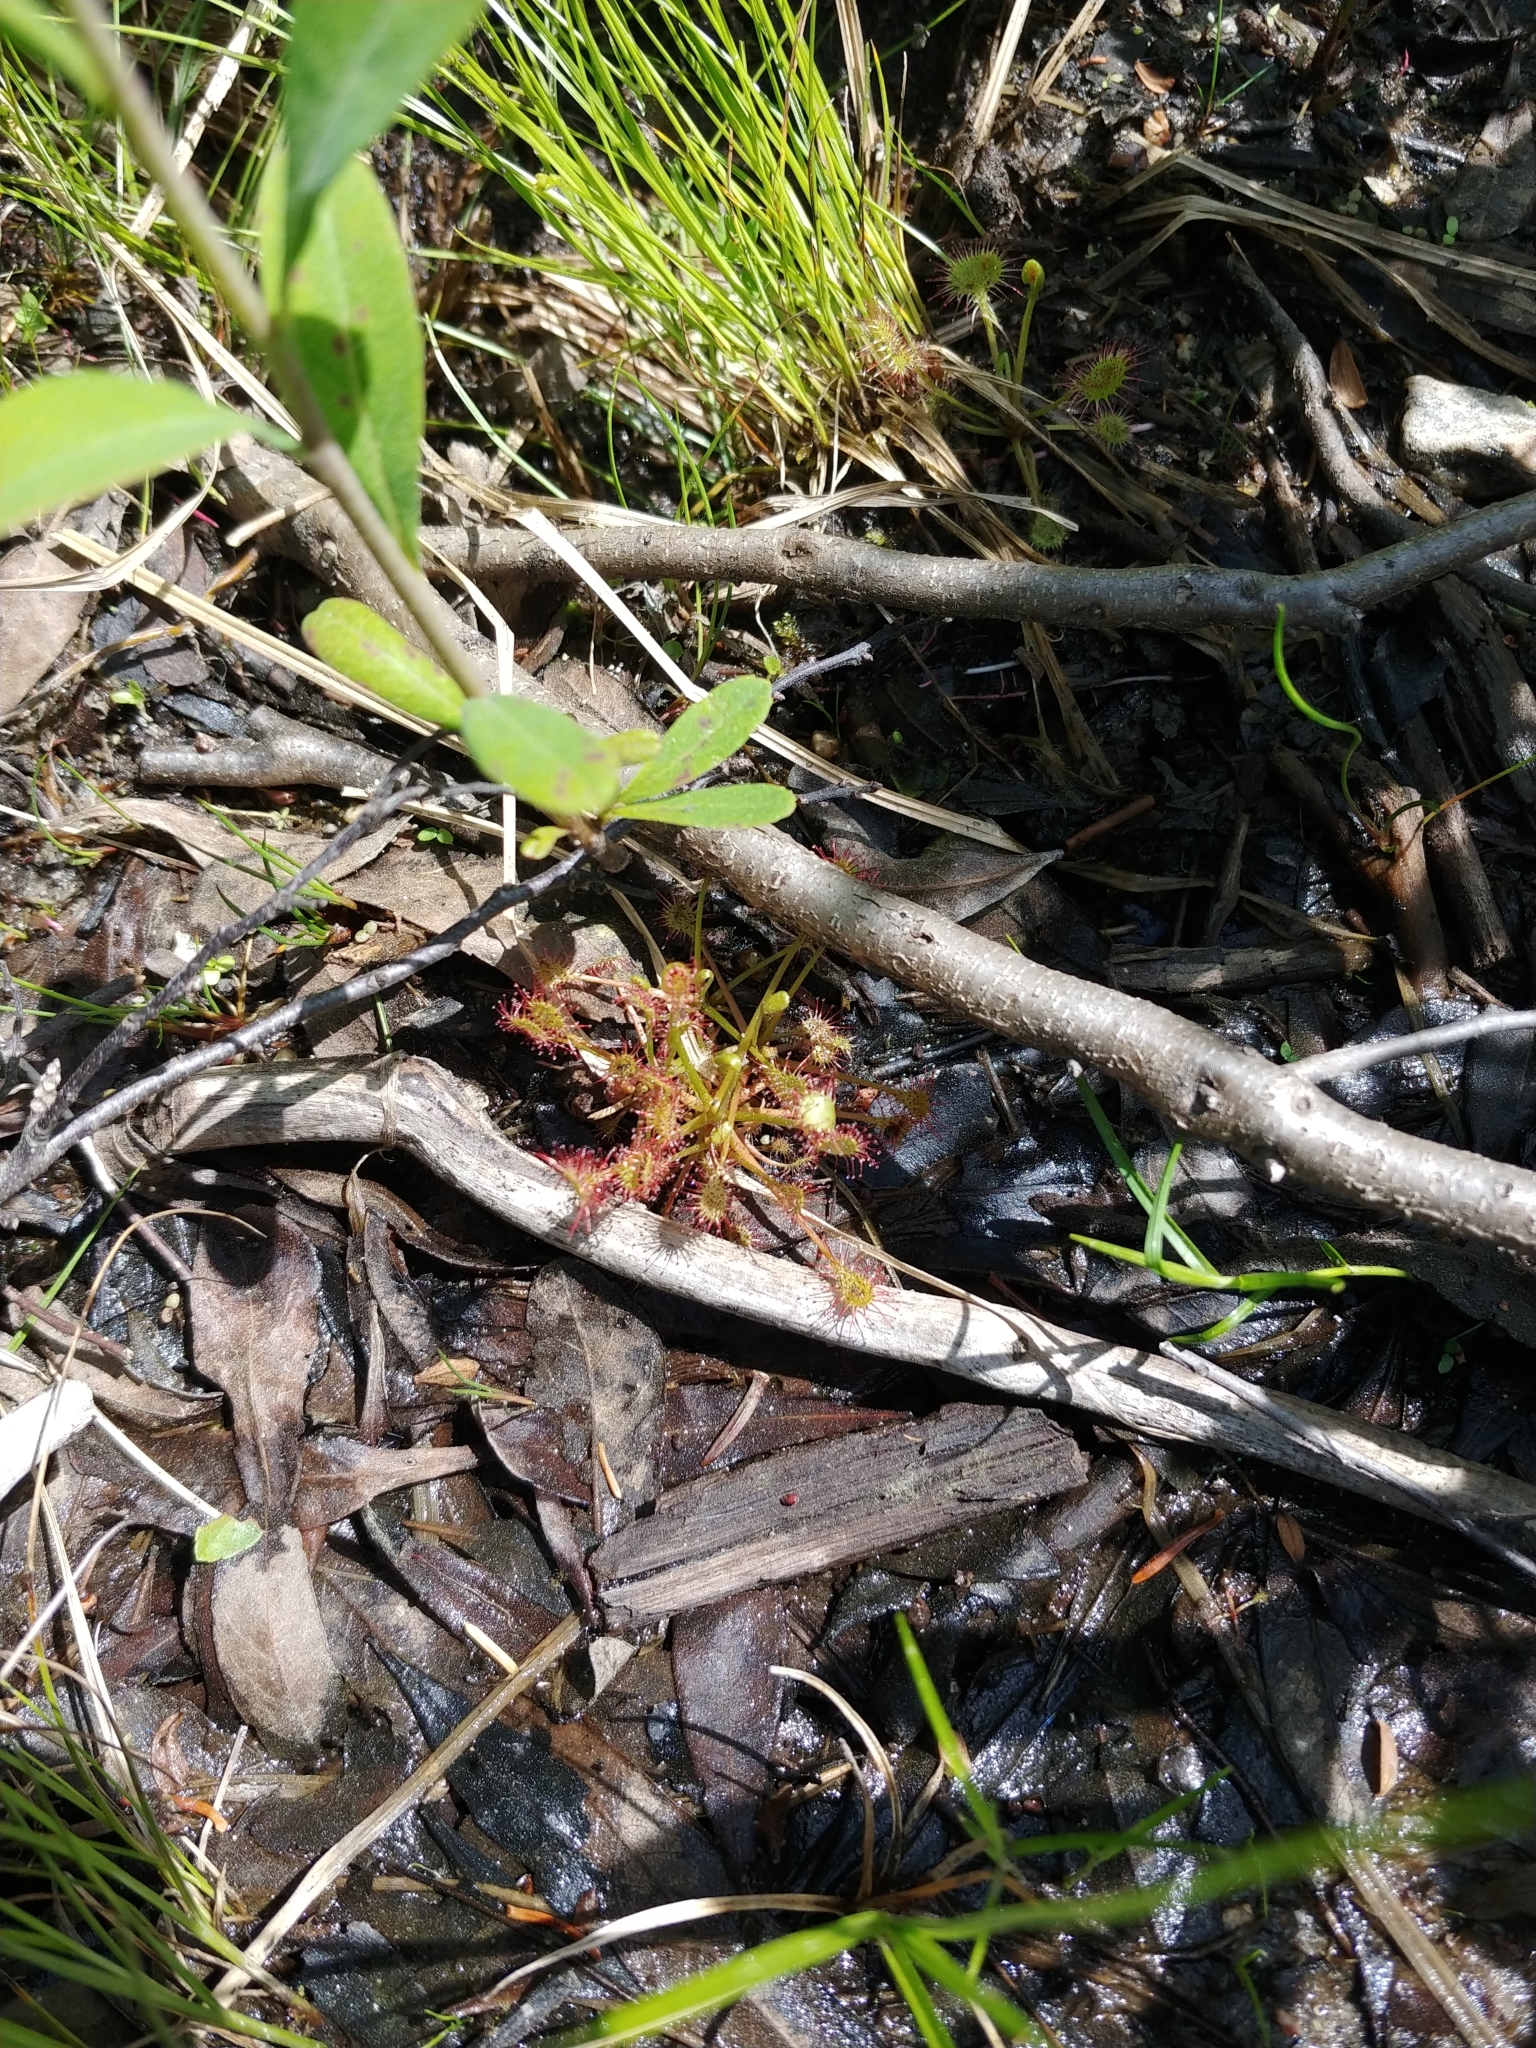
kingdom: Plantae
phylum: Tracheophyta
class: Magnoliopsida
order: Caryophyllales
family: Droseraceae
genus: Drosera
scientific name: Drosera intermedia
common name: Oblong-leaved sundew
